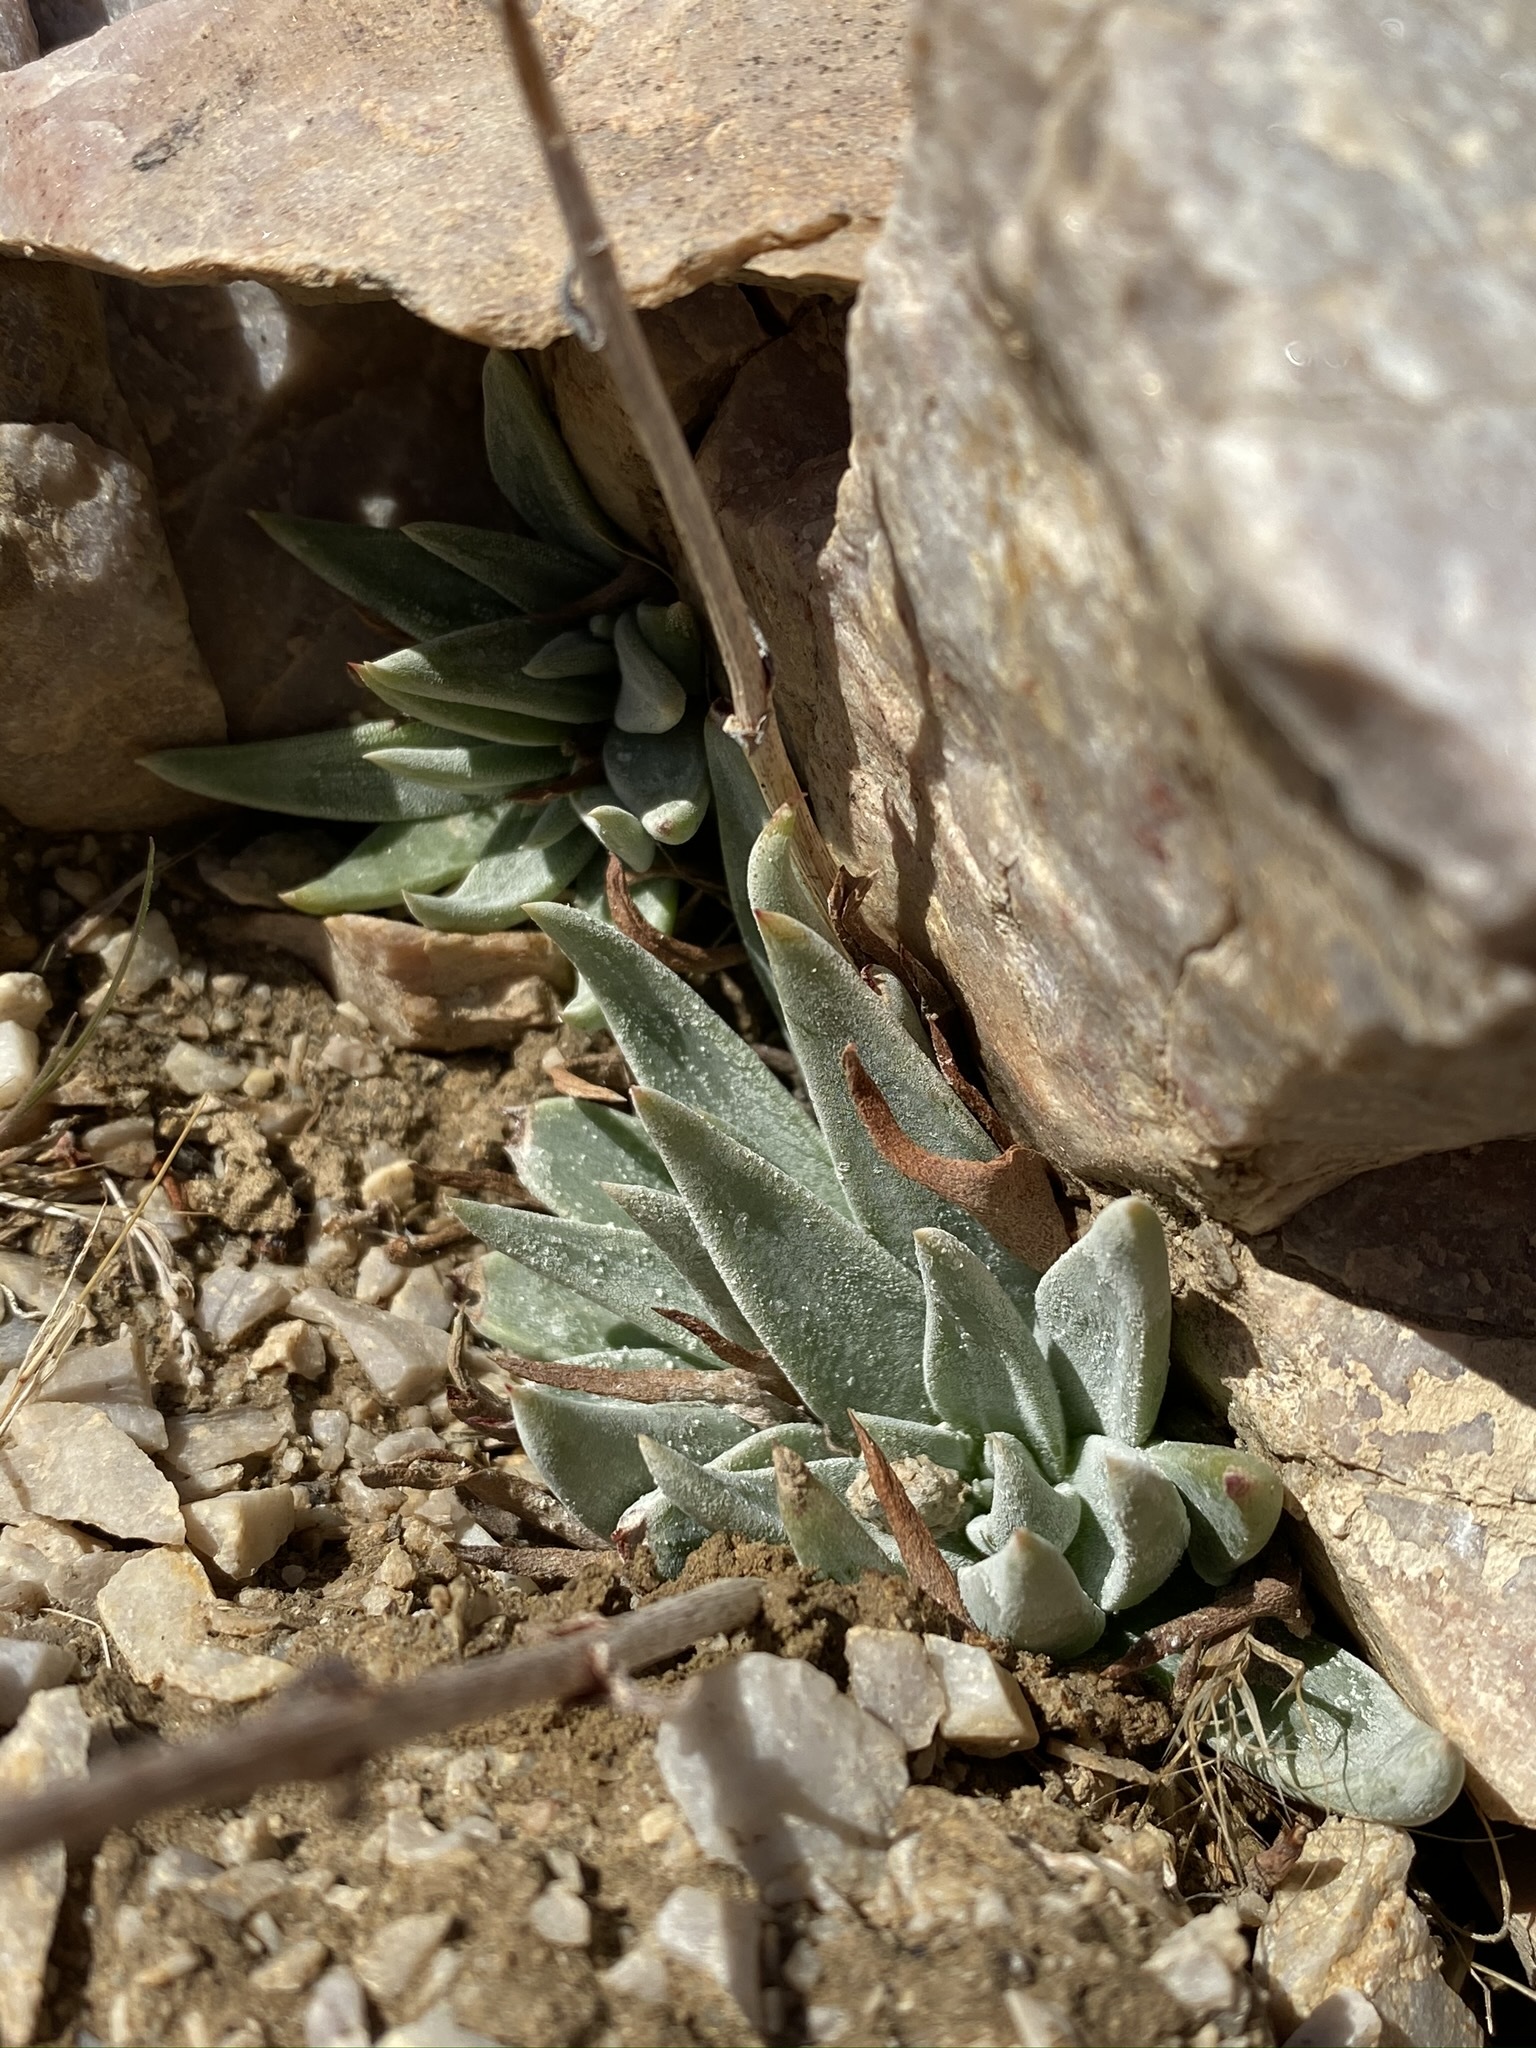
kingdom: Plantae
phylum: Tracheophyta
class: Magnoliopsida
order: Saxifragales
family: Crassulaceae
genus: Dudleya
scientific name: Dudleya saxosa
